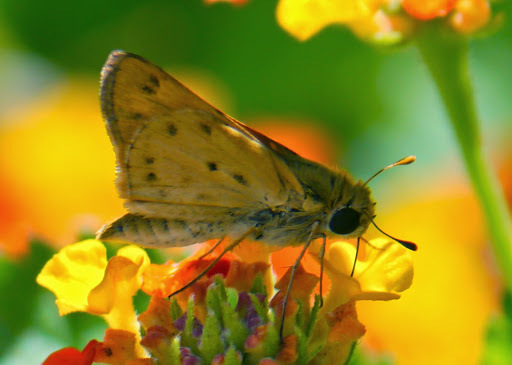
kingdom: Animalia
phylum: Arthropoda
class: Insecta
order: Lepidoptera
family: Hesperiidae
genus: Hylephila
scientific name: Hylephila phyleus
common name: Fiery skipper
